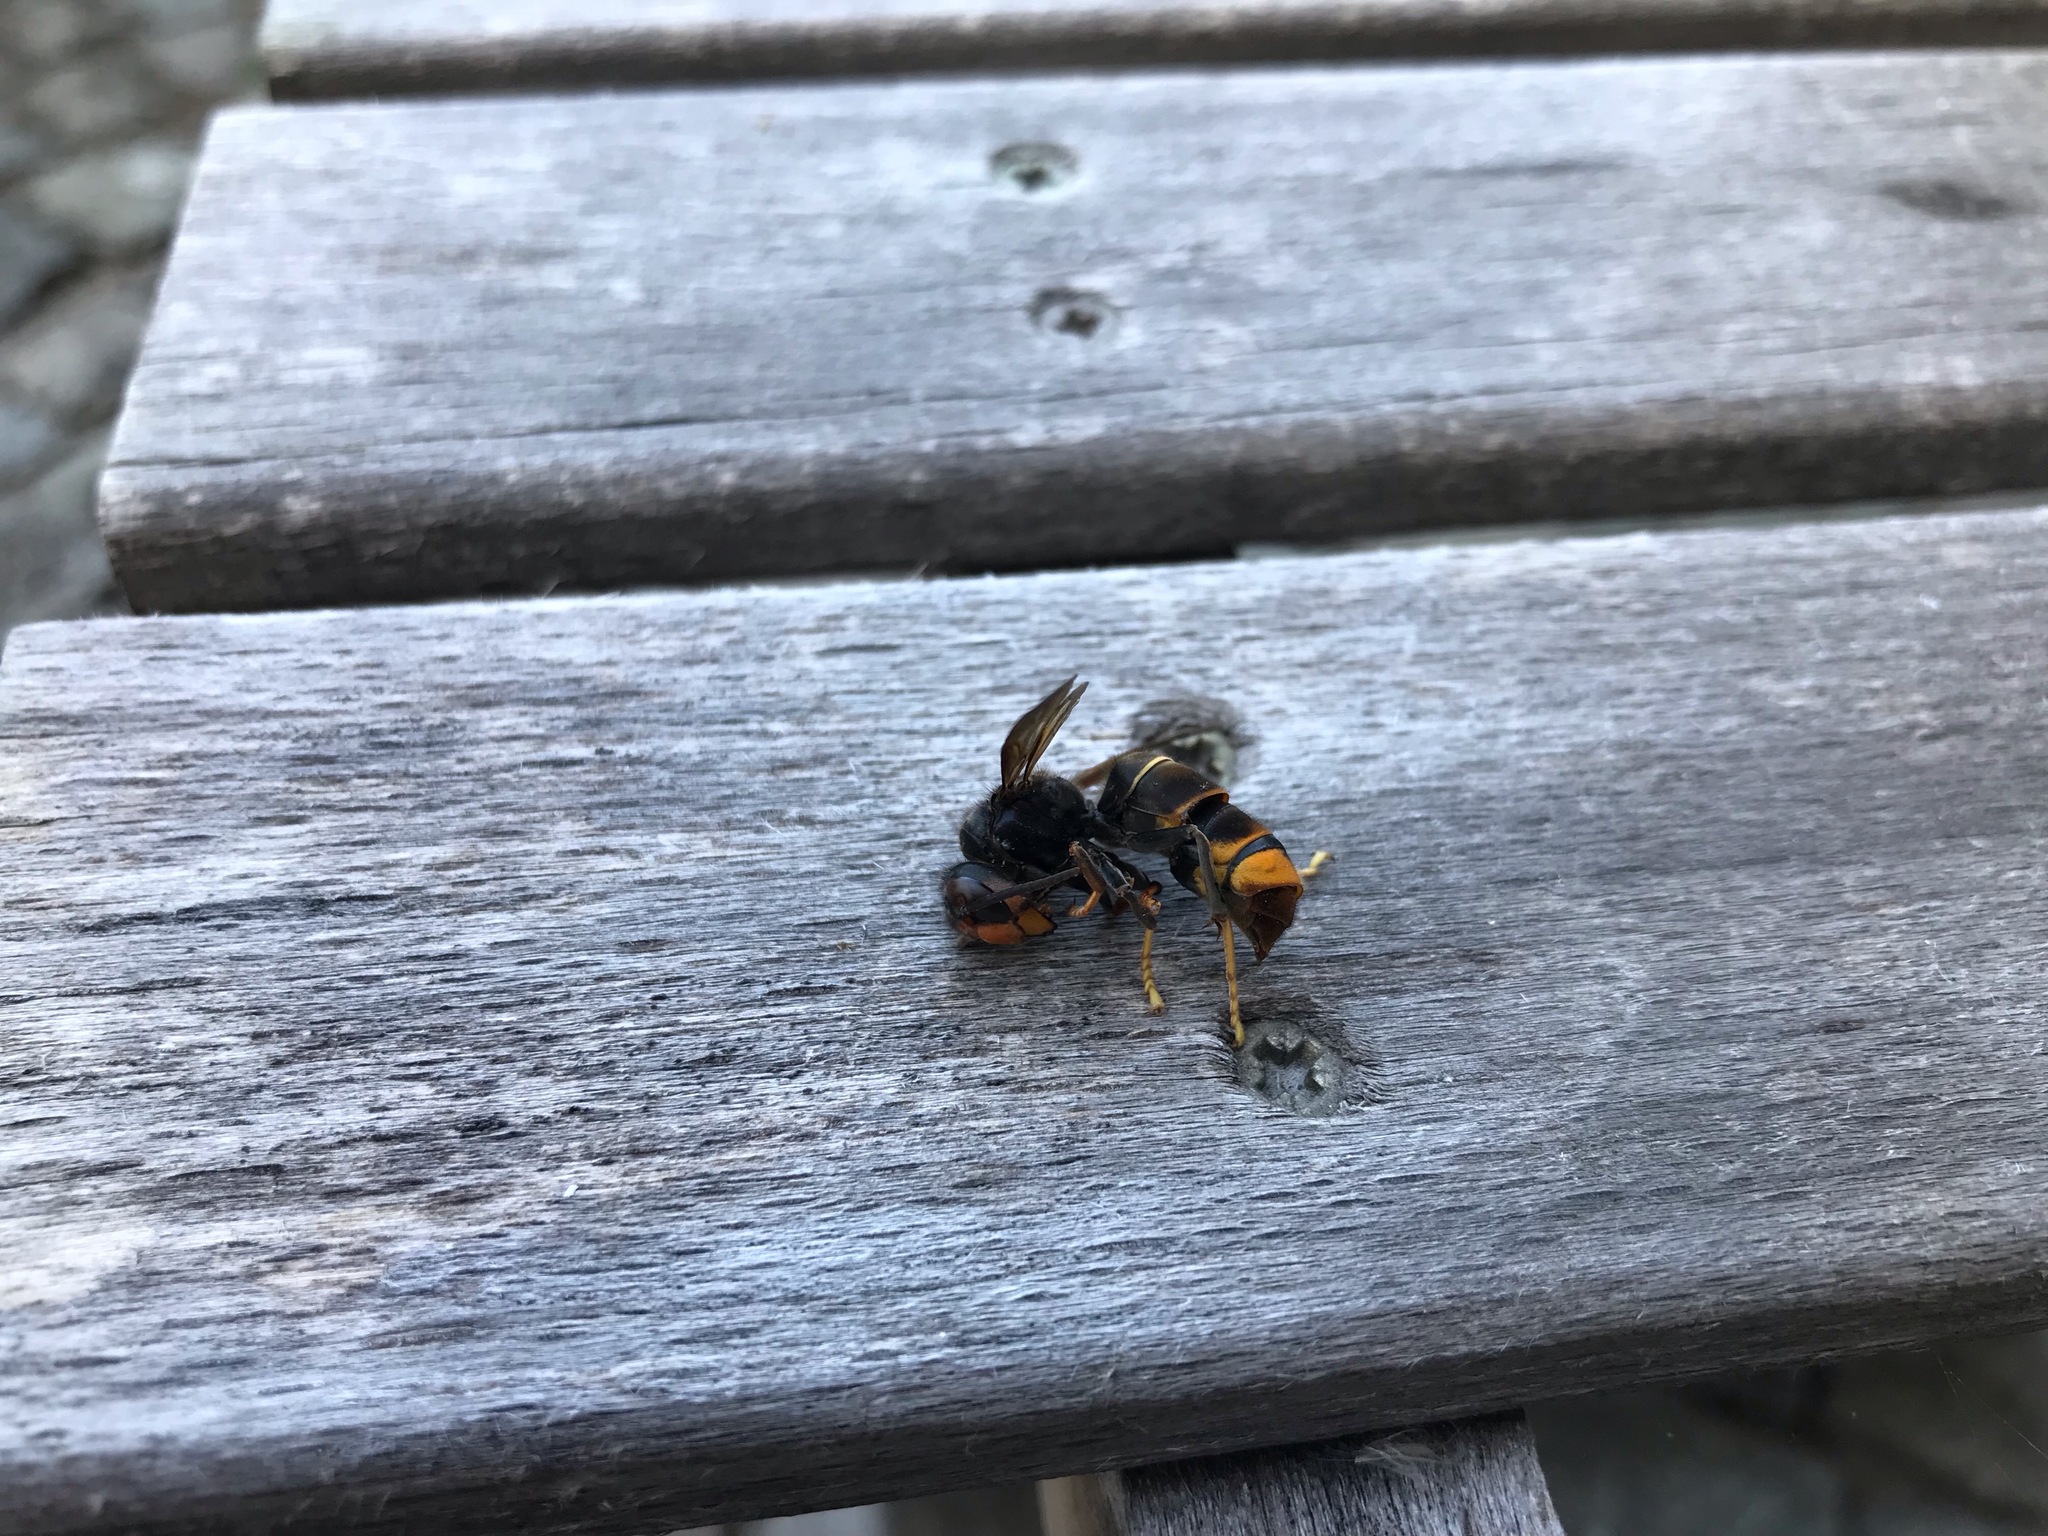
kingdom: Animalia
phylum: Arthropoda
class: Insecta
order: Hymenoptera
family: Vespidae
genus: Vespa
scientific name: Vespa velutina
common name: Asian hornet
